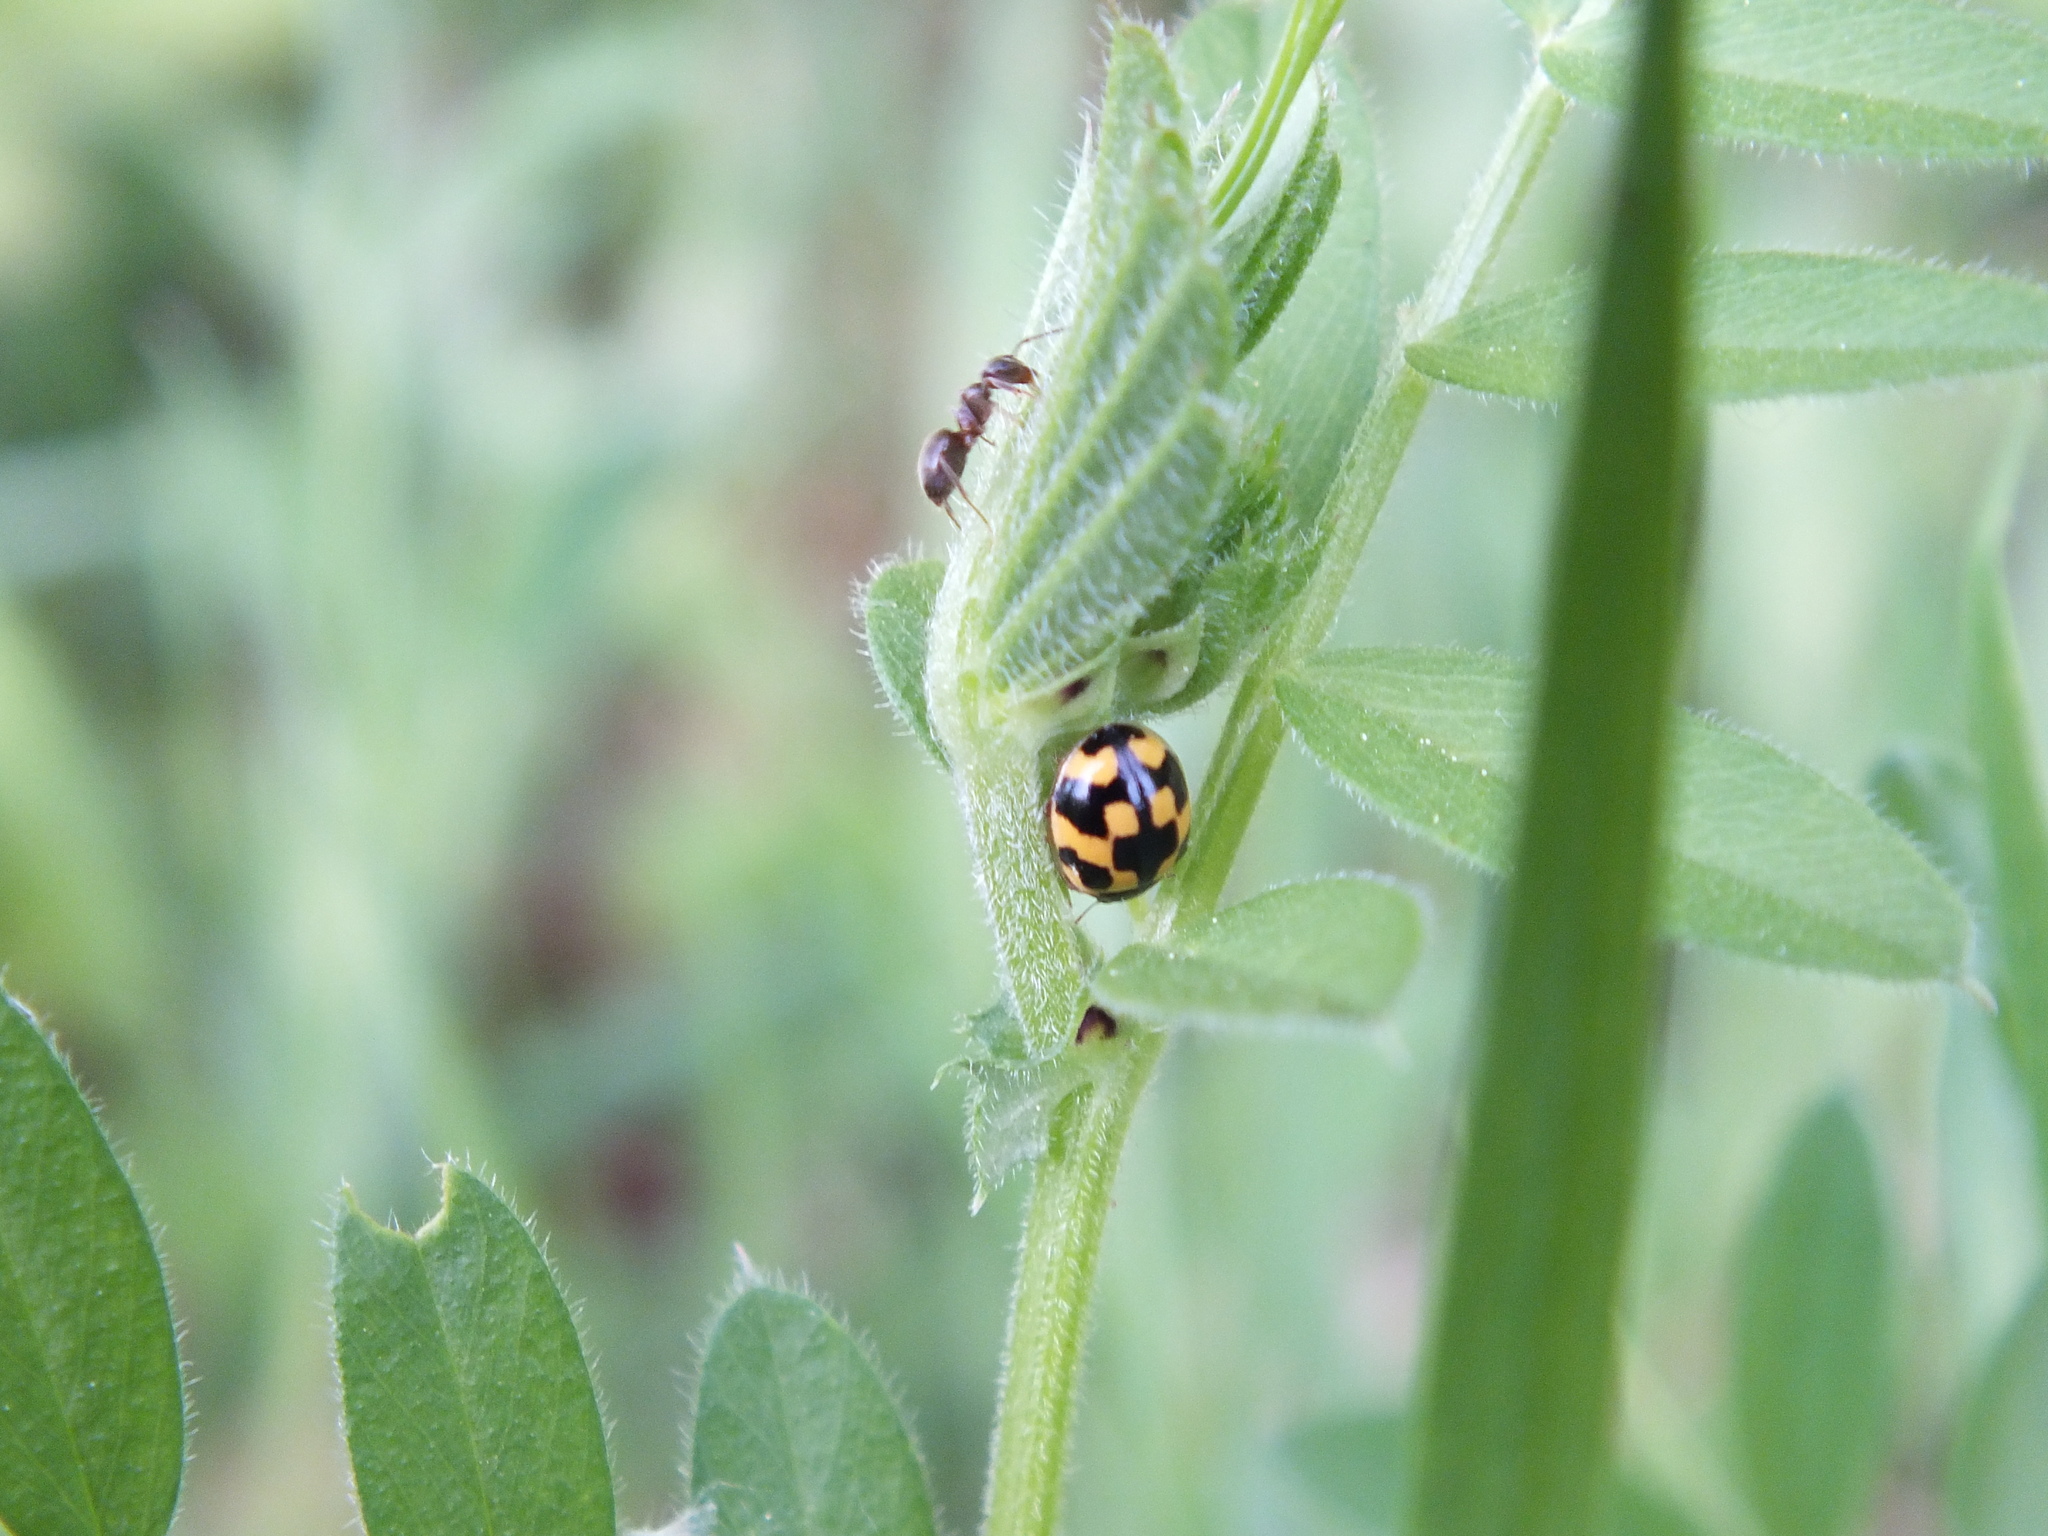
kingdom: Animalia
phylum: Arthropoda
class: Insecta
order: Coleoptera
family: Coccinellidae
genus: Propylaea
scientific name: Propylaea quatuordecimpunctata
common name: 14-spotted ladybird beetle
